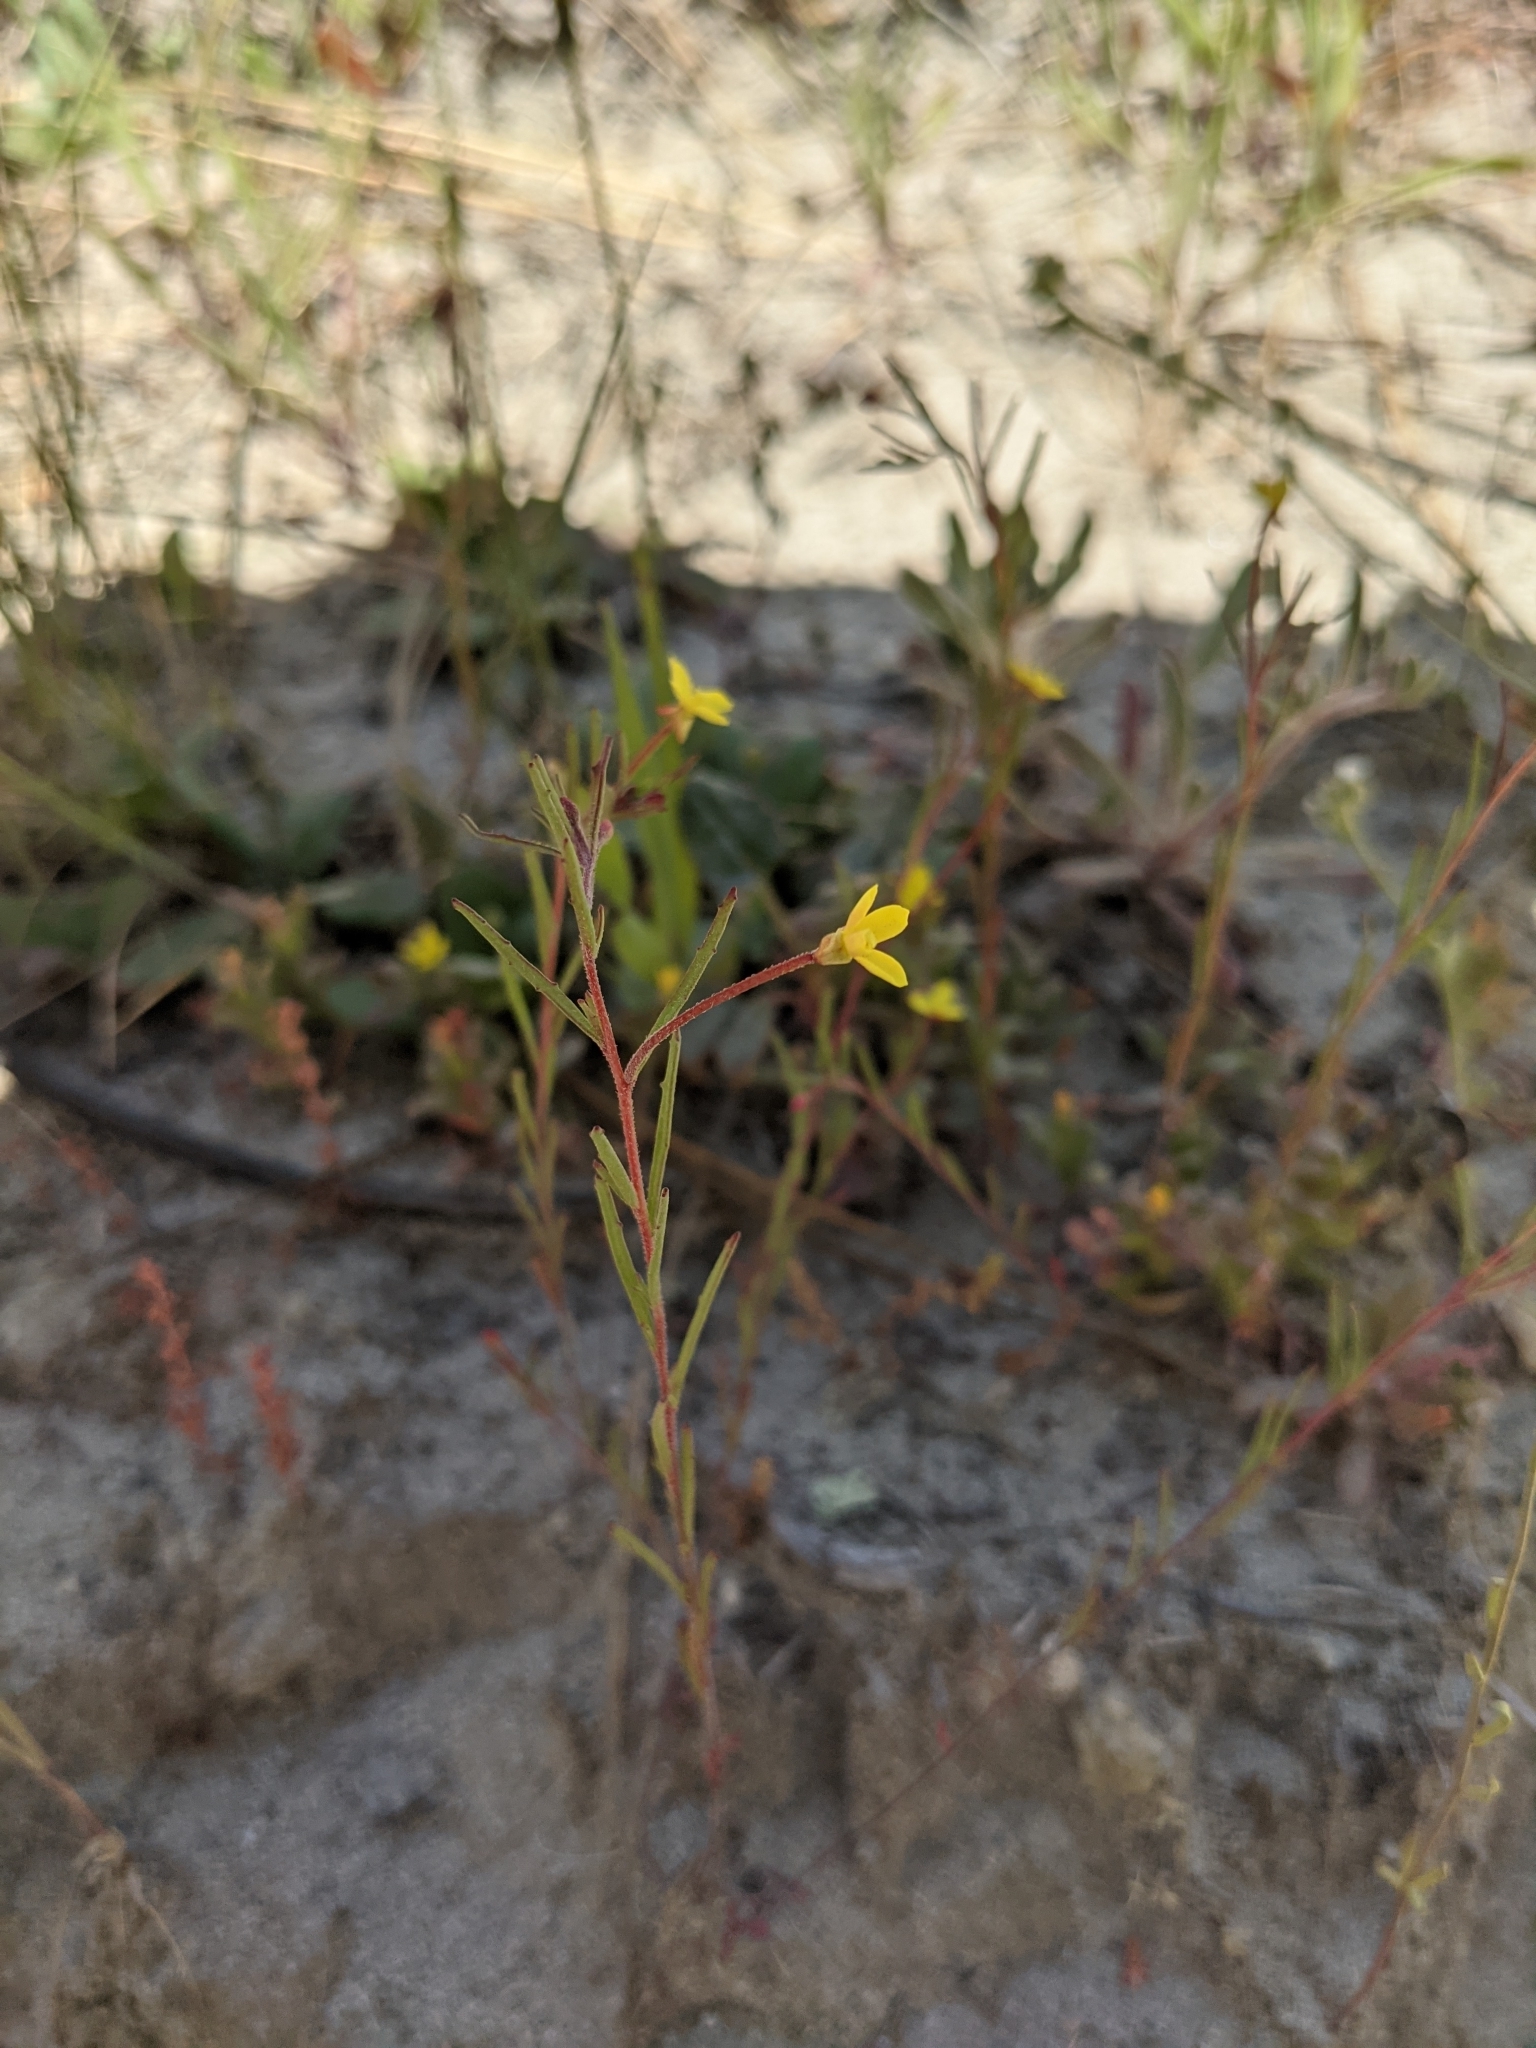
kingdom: Plantae
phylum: Tracheophyta
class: Magnoliopsida
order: Myrtales
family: Onagraceae
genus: Camissonia
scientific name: Camissonia strigulosa
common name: Contorted-primrose
